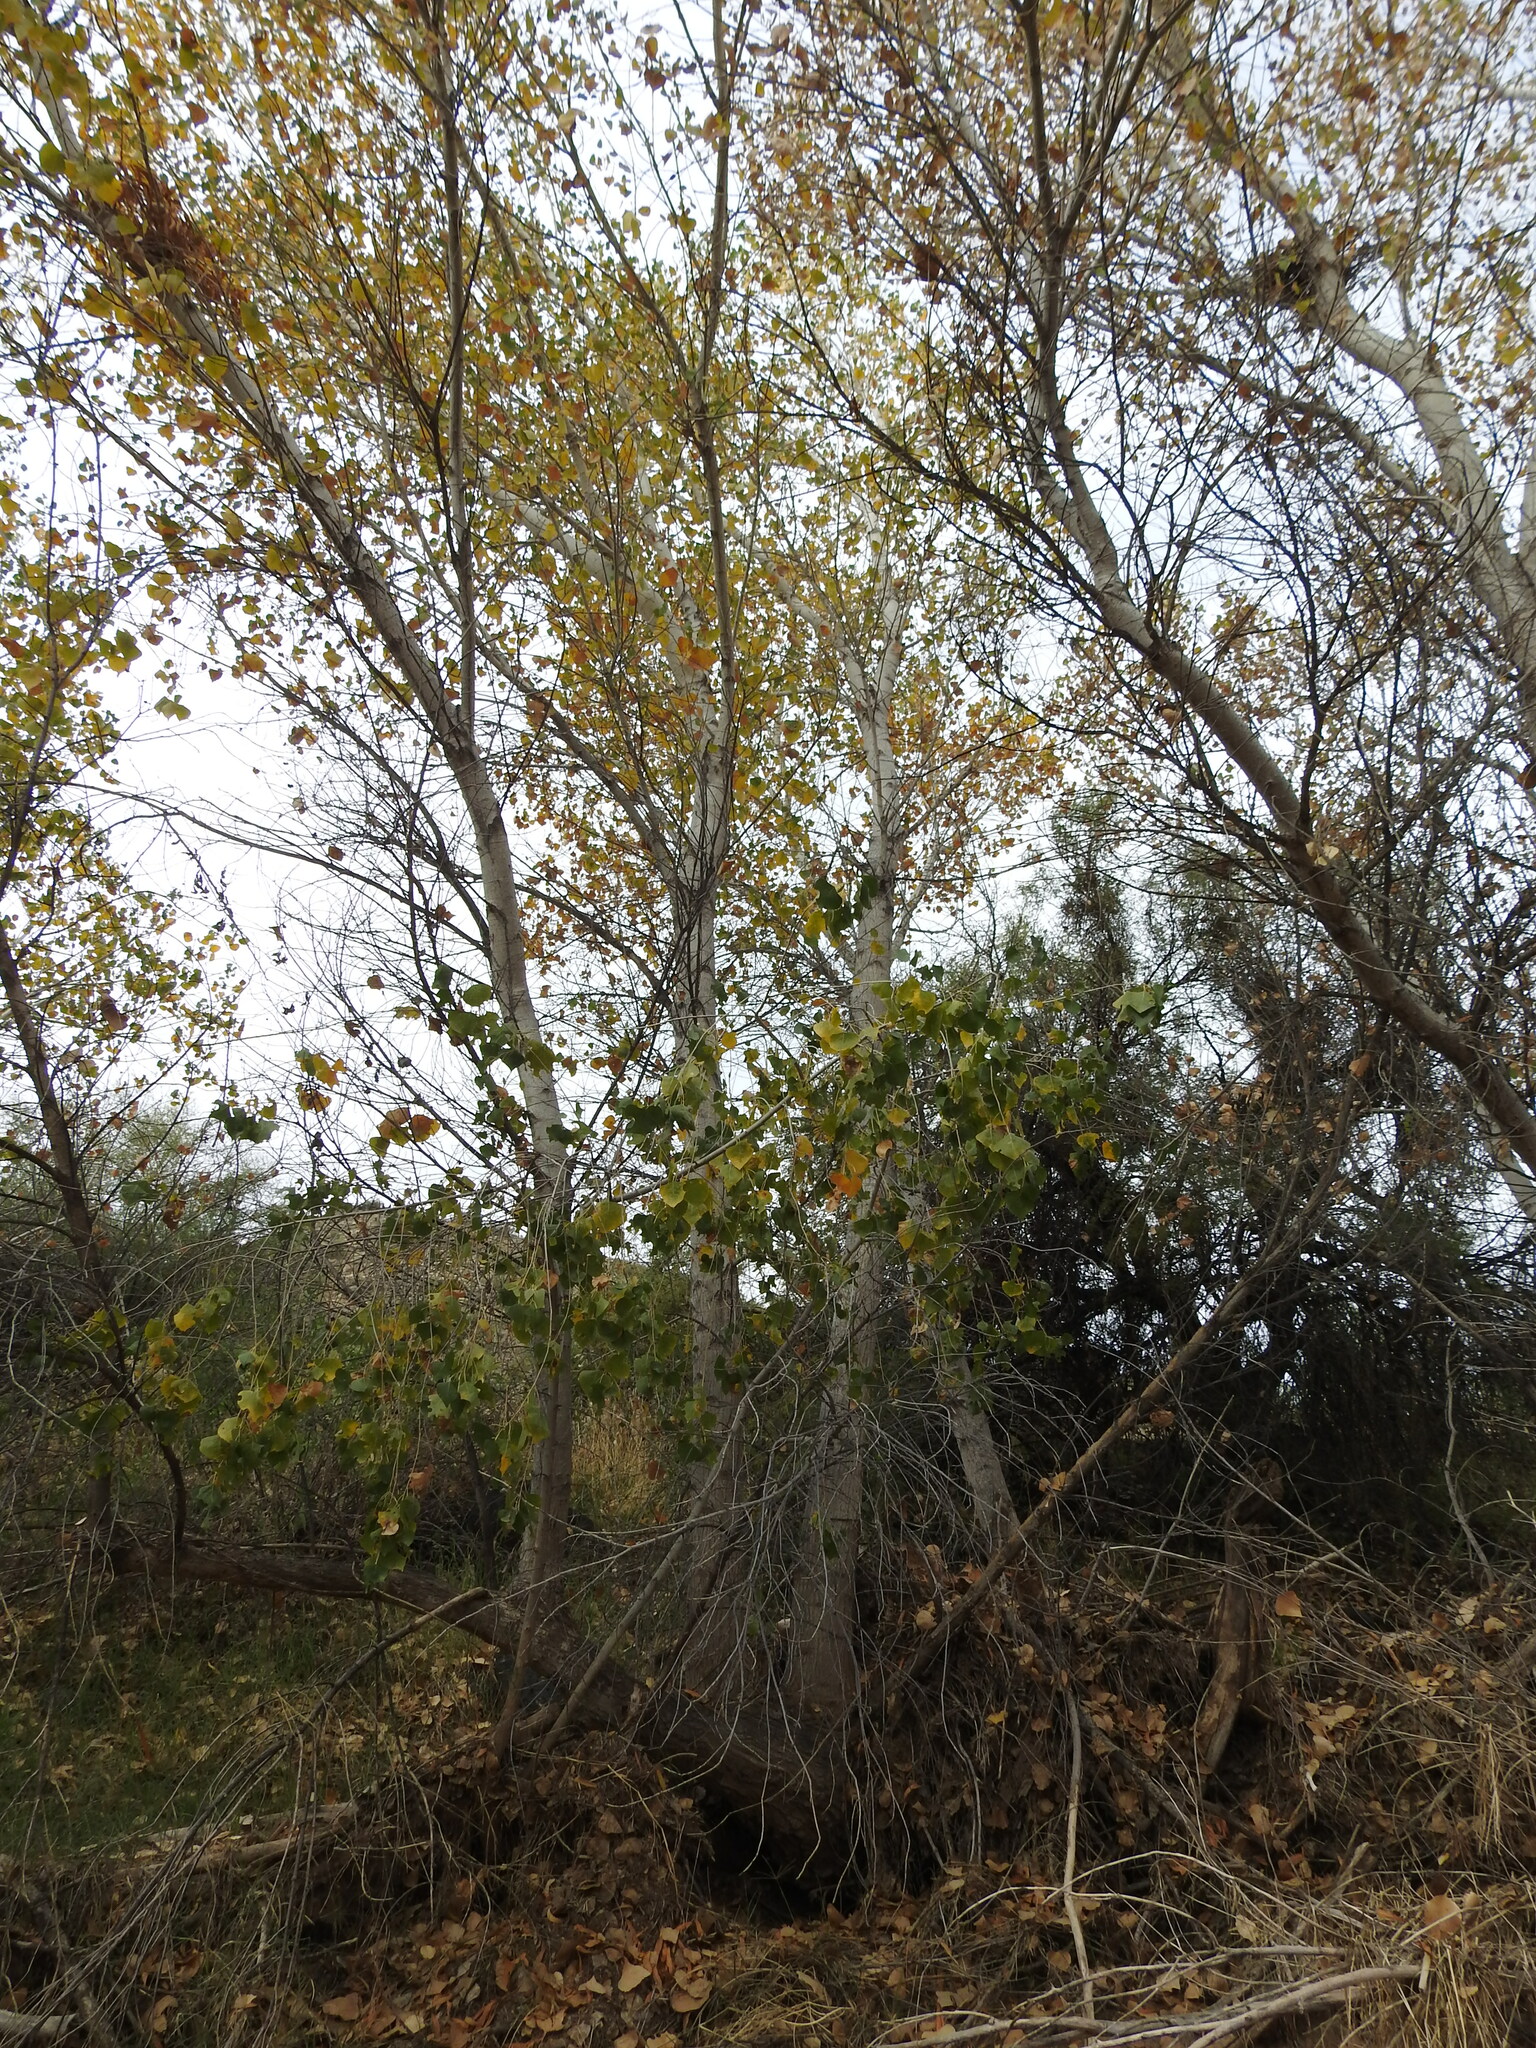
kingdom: Plantae
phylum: Tracheophyta
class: Magnoliopsida
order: Malpighiales
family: Salicaceae
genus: Populus
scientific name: Populus fremontii
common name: Fremont's cottonwood
